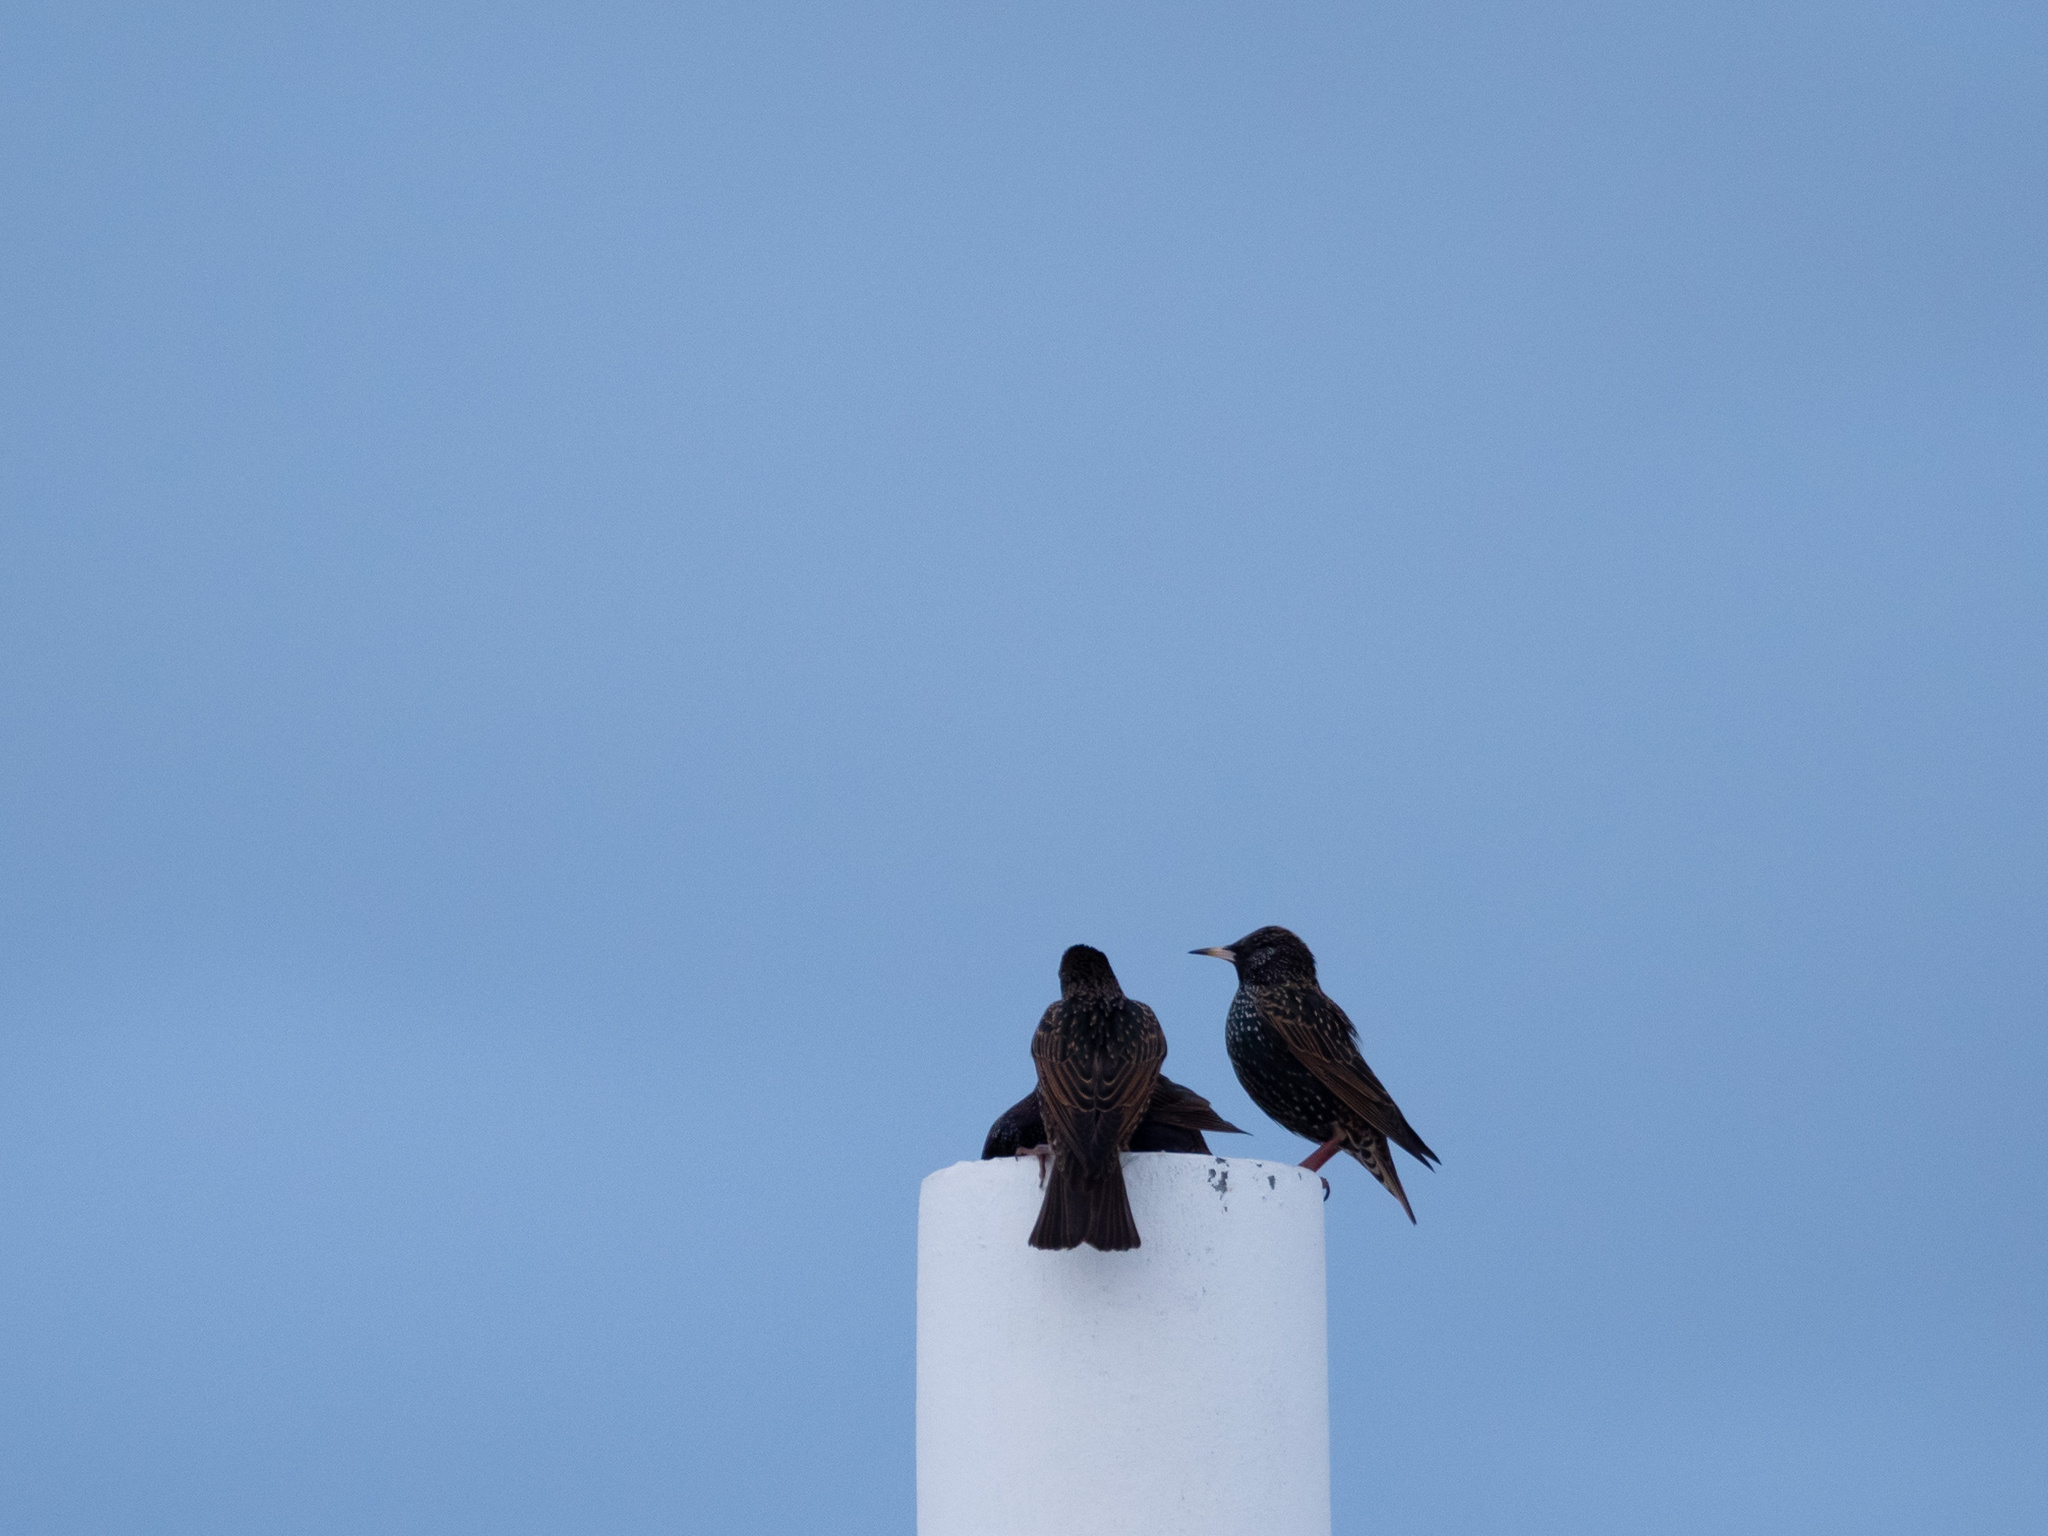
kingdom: Animalia
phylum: Chordata
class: Aves
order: Passeriformes
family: Sturnidae
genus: Sturnus
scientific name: Sturnus vulgaris
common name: Common starling
